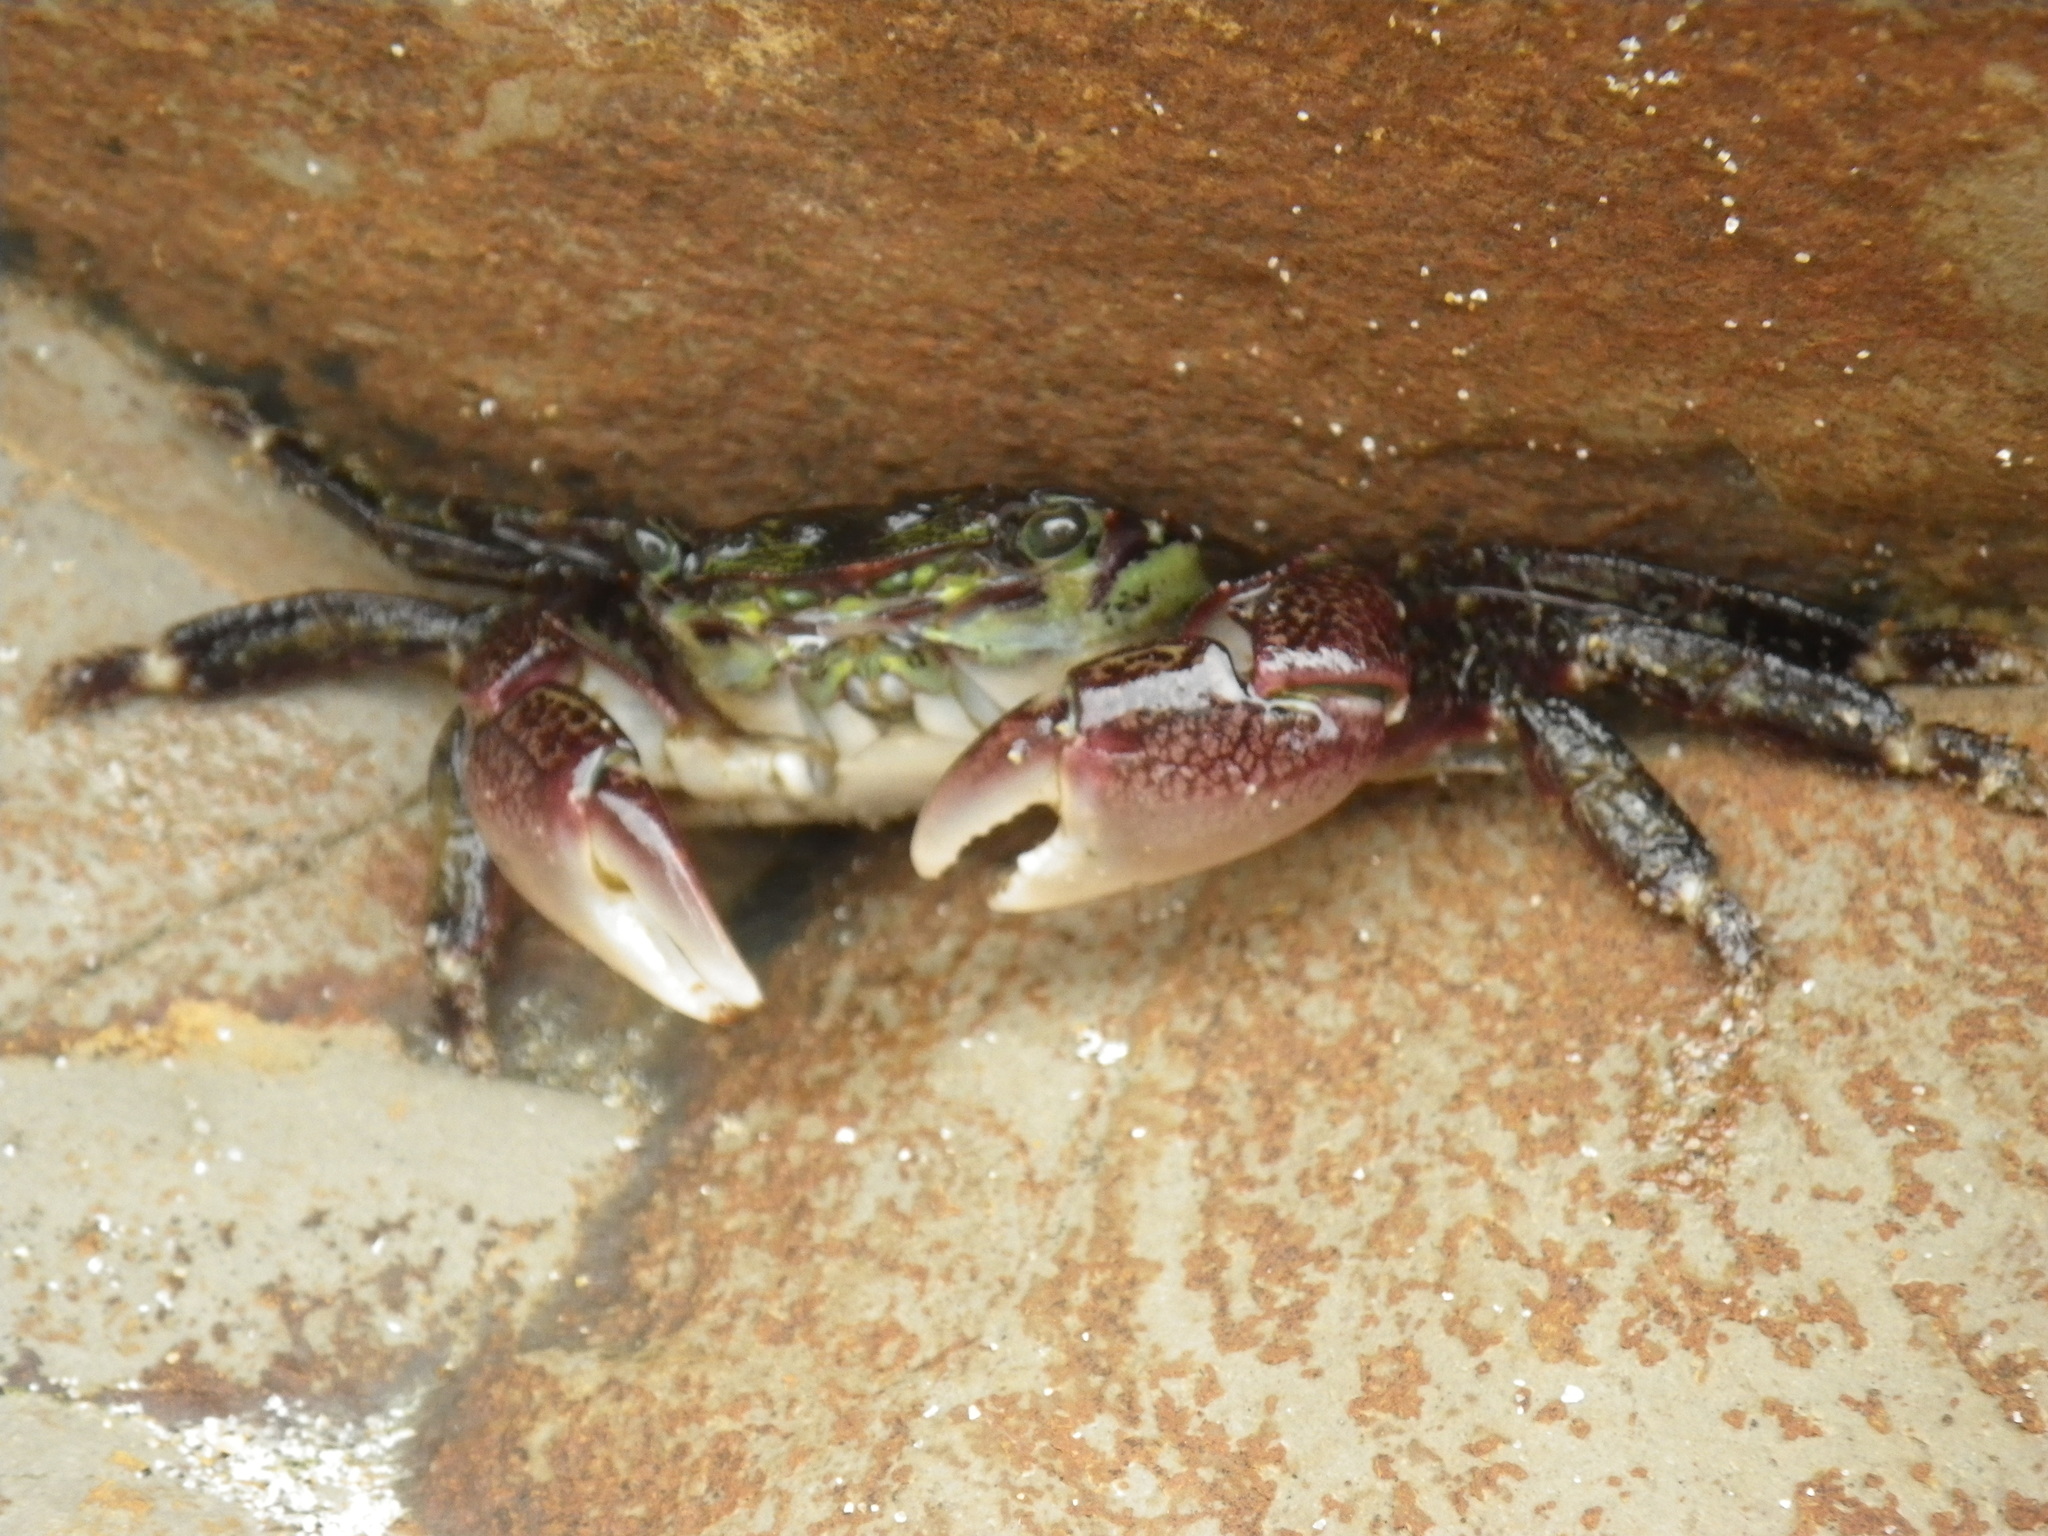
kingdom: Animalia
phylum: Arthropoda
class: Malacostraca
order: Decapoda
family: Grapsidae
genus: Pachygrapsus
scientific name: Pachygrapsus crassipes
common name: Striped shore crab
